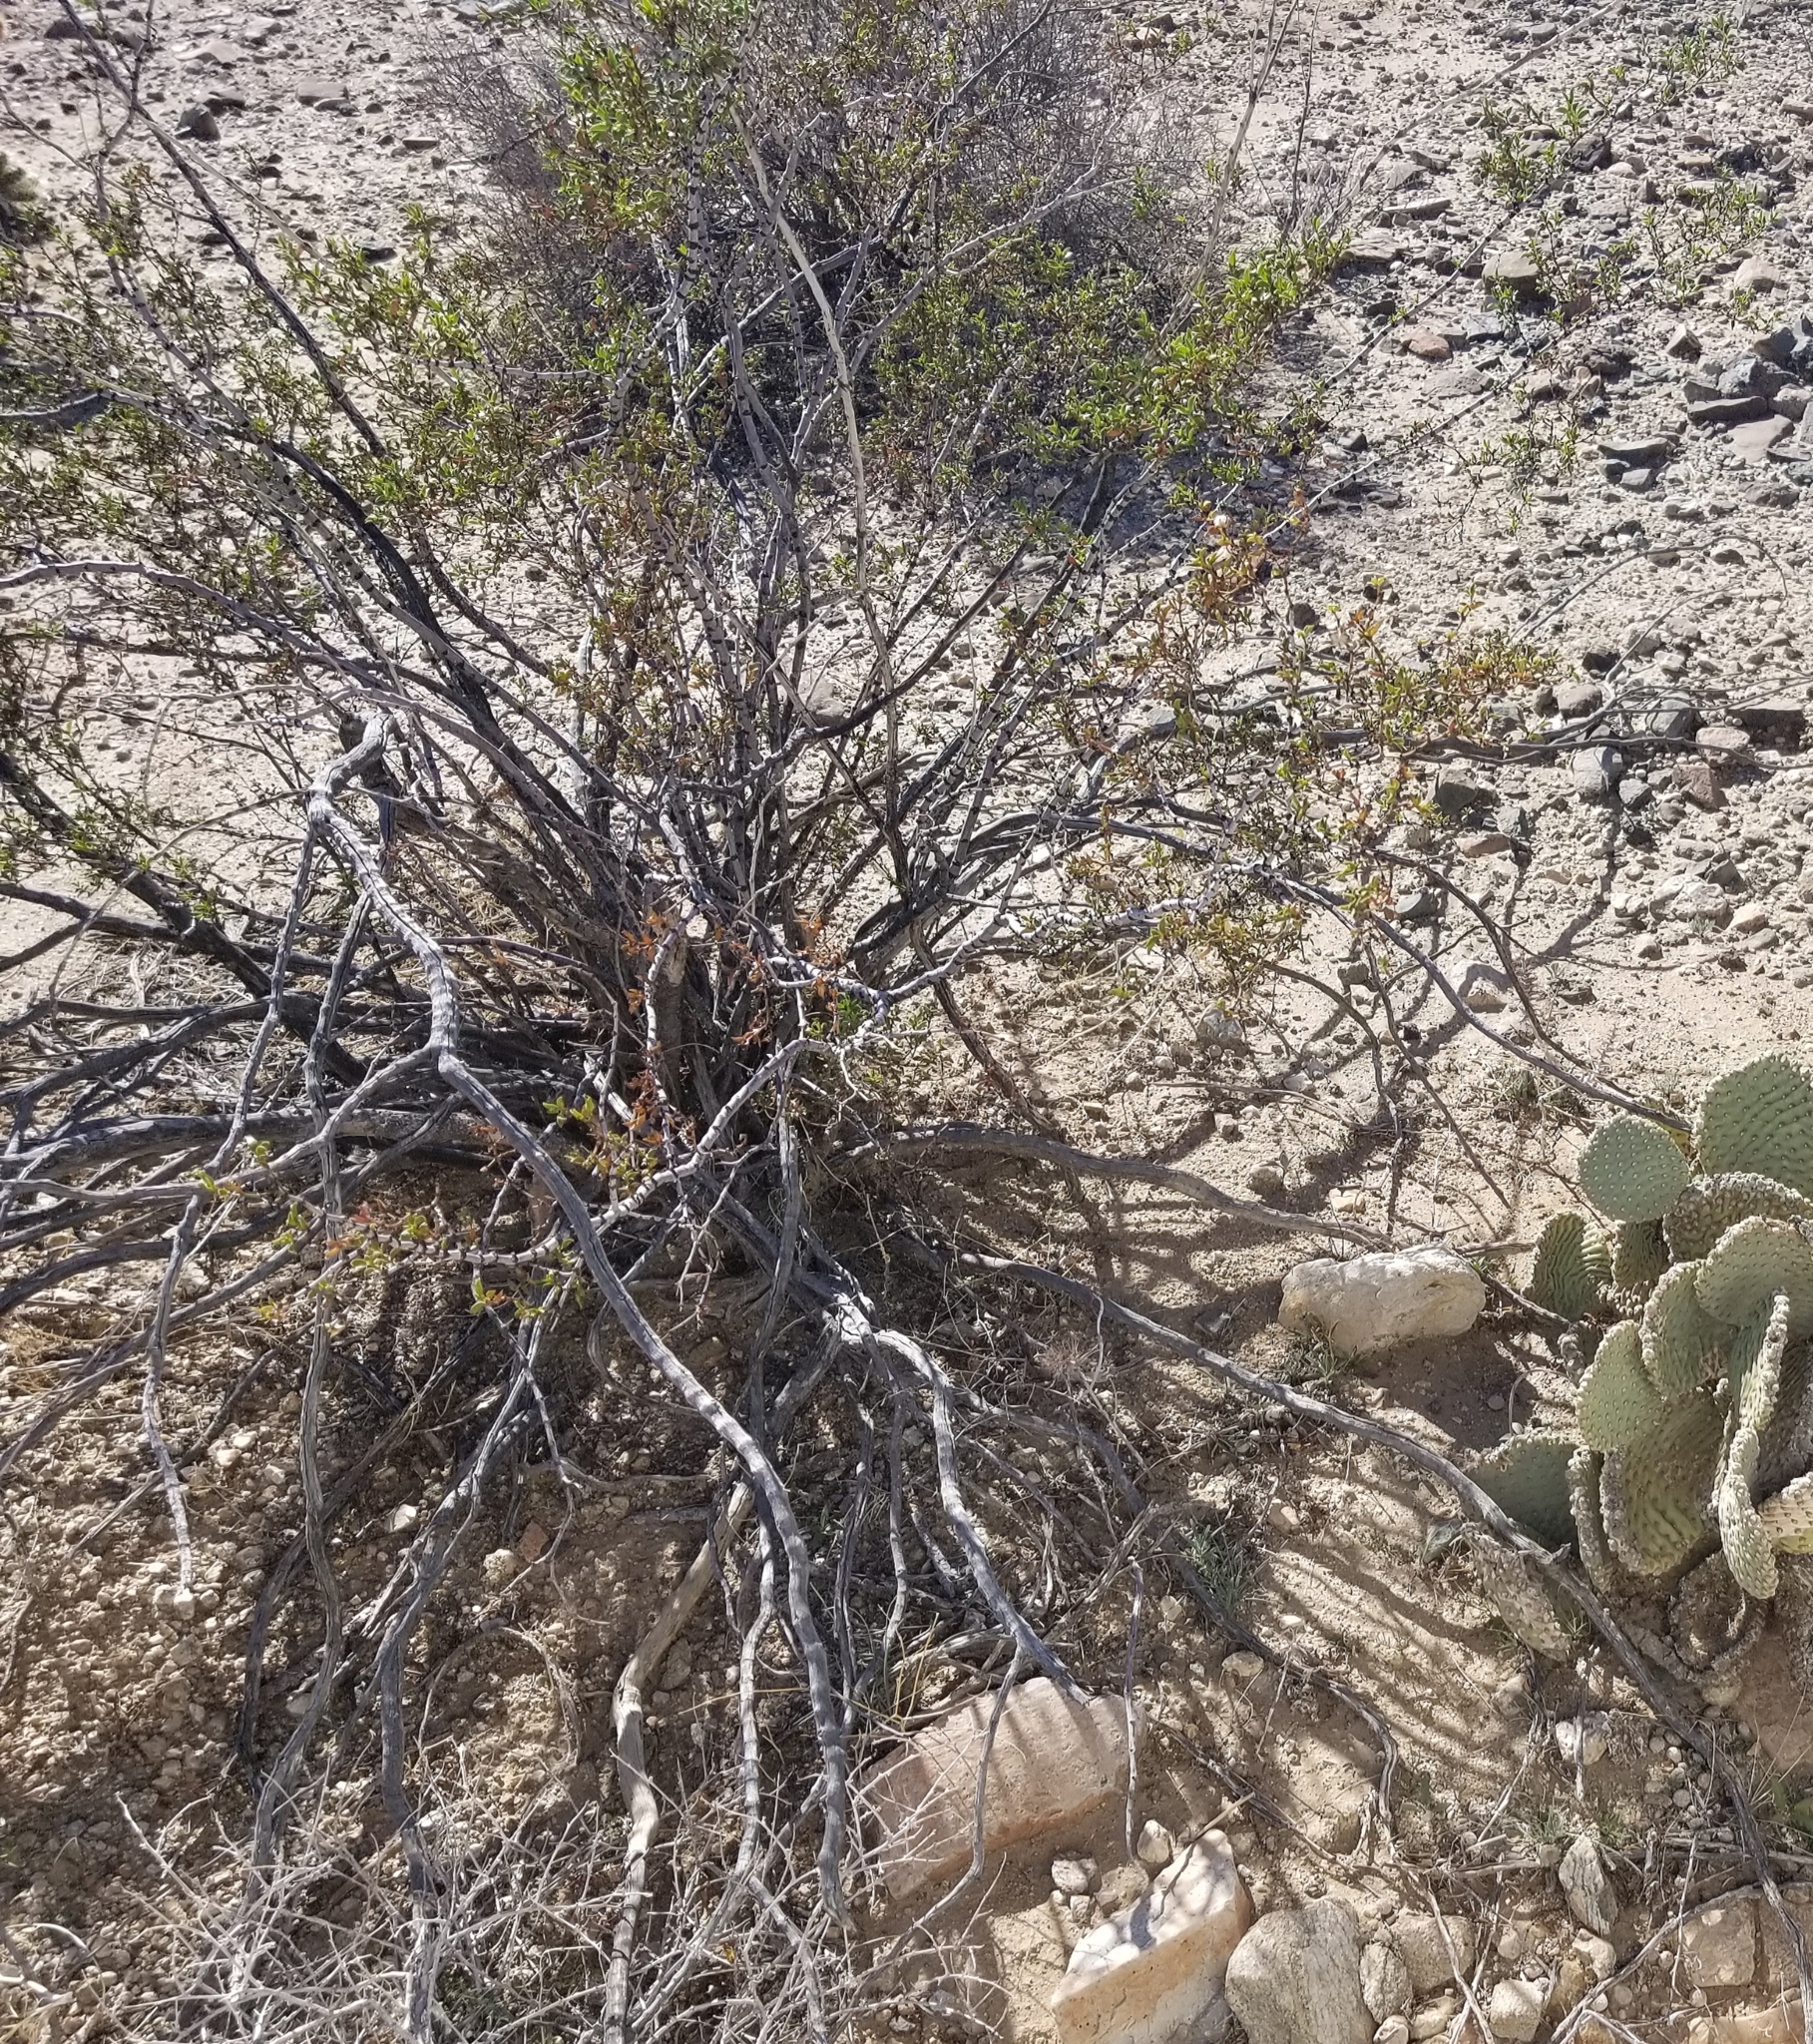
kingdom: Plantae
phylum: Tracheophyta
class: Magnoliopsida
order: Zygophyllales
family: Zygophyllaceae
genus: Larrea
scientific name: Larrea tridentata
